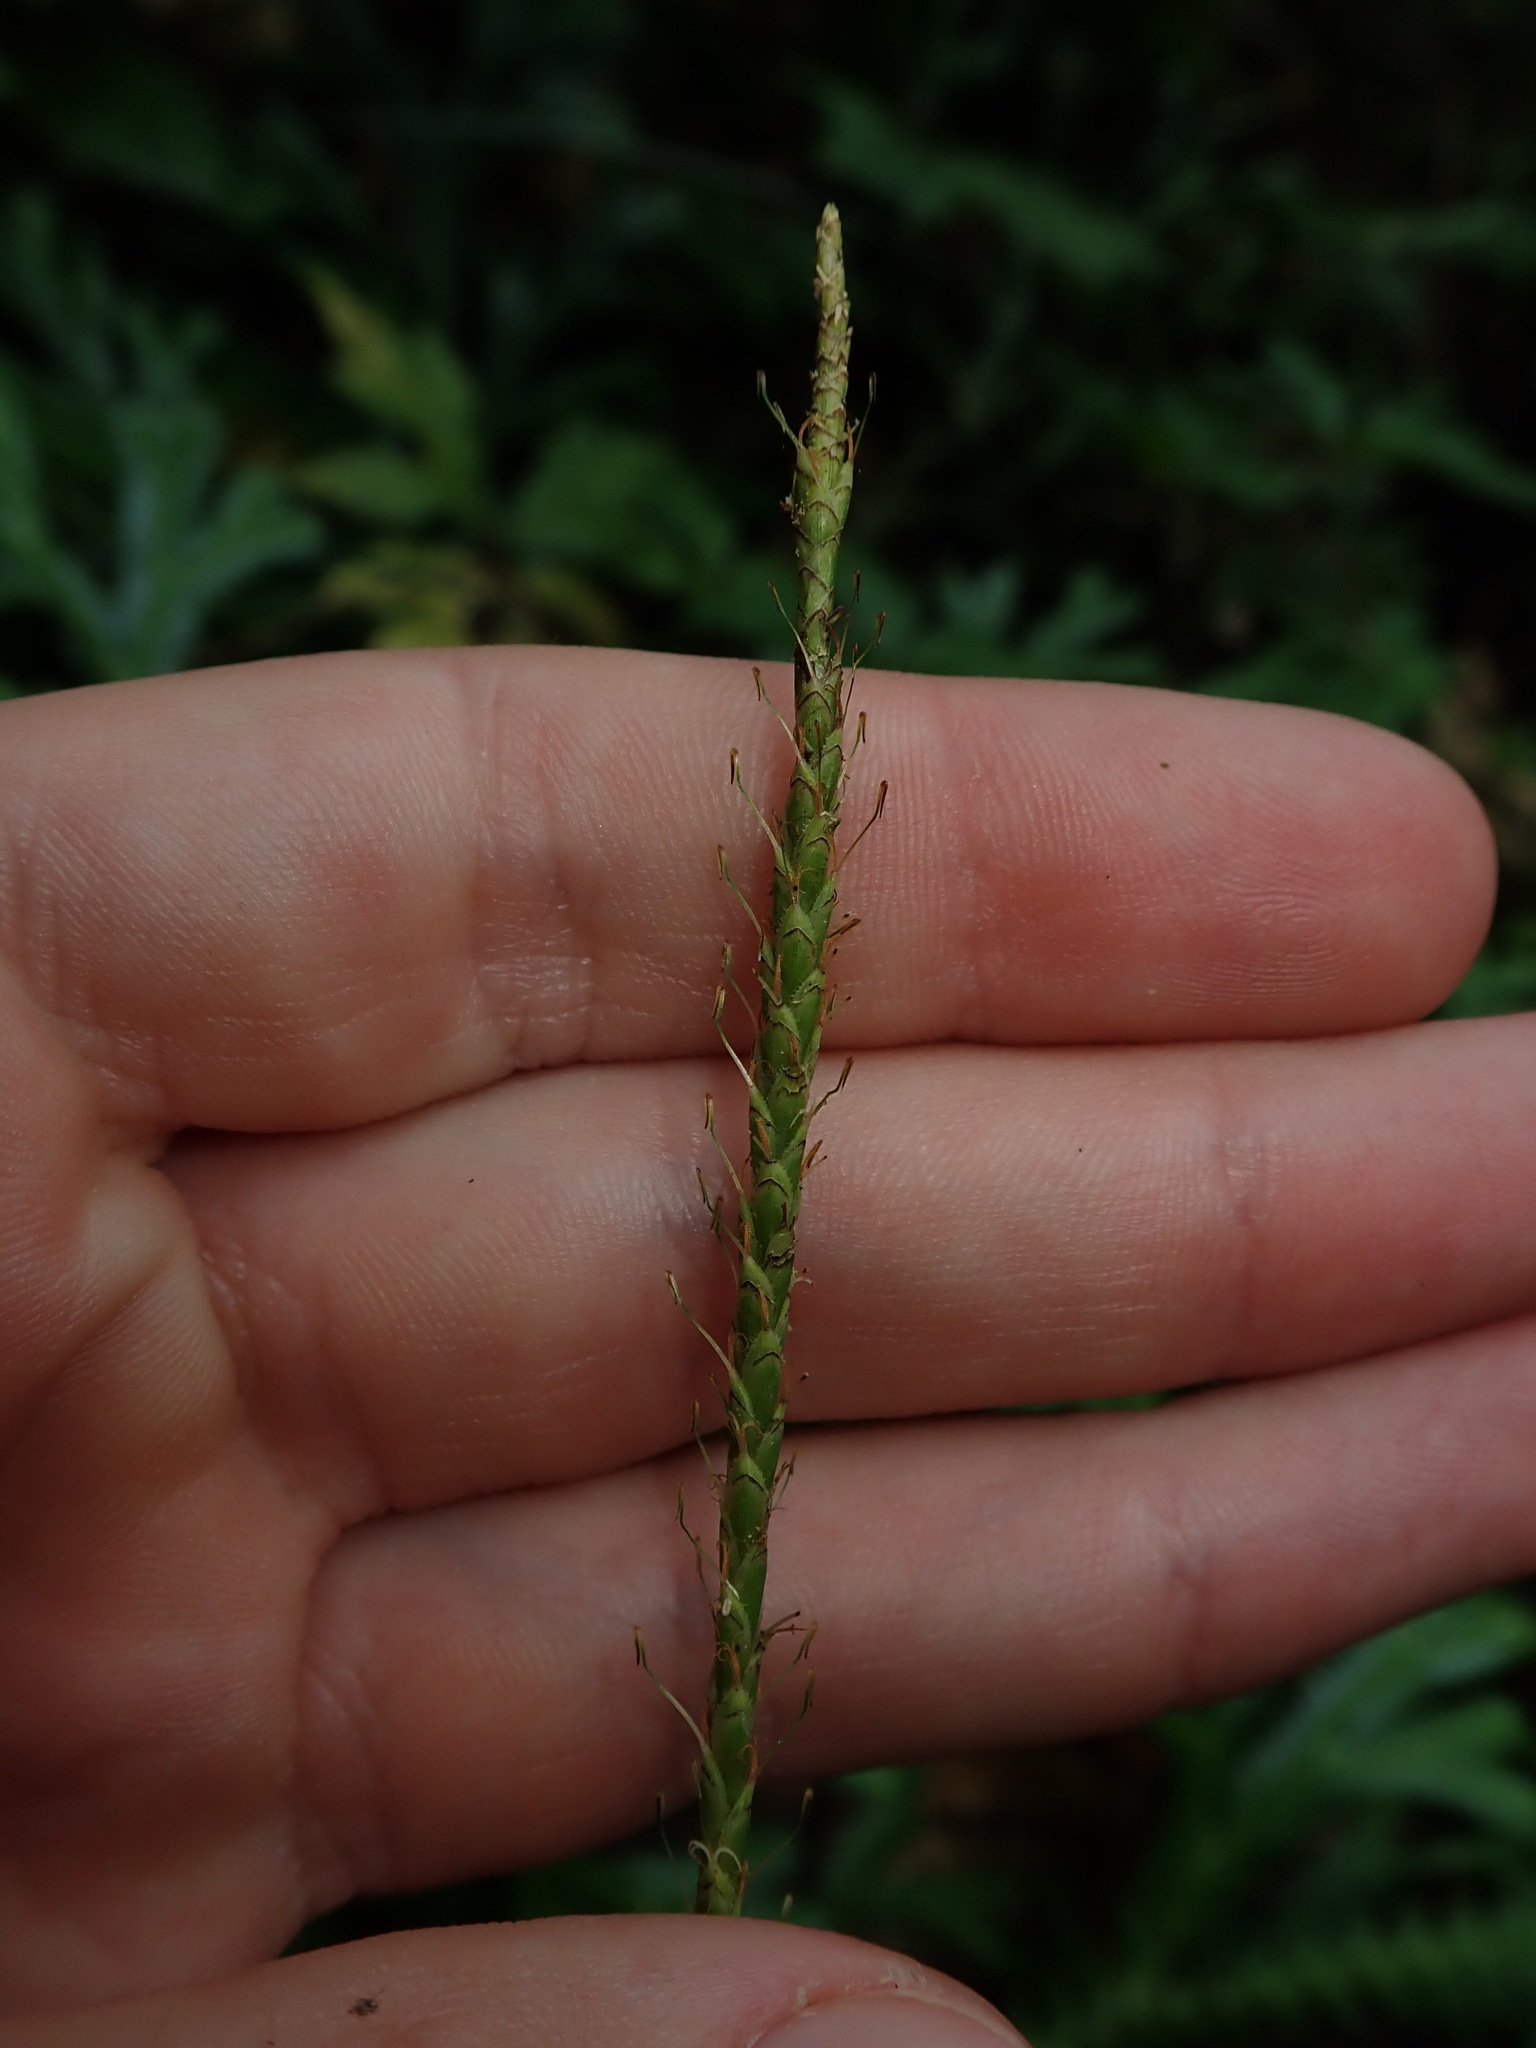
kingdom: Plantae
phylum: Tracheophyta
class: Liliopsida
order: Poales
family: Cyperaceae
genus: Carex
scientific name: Carex hamata
